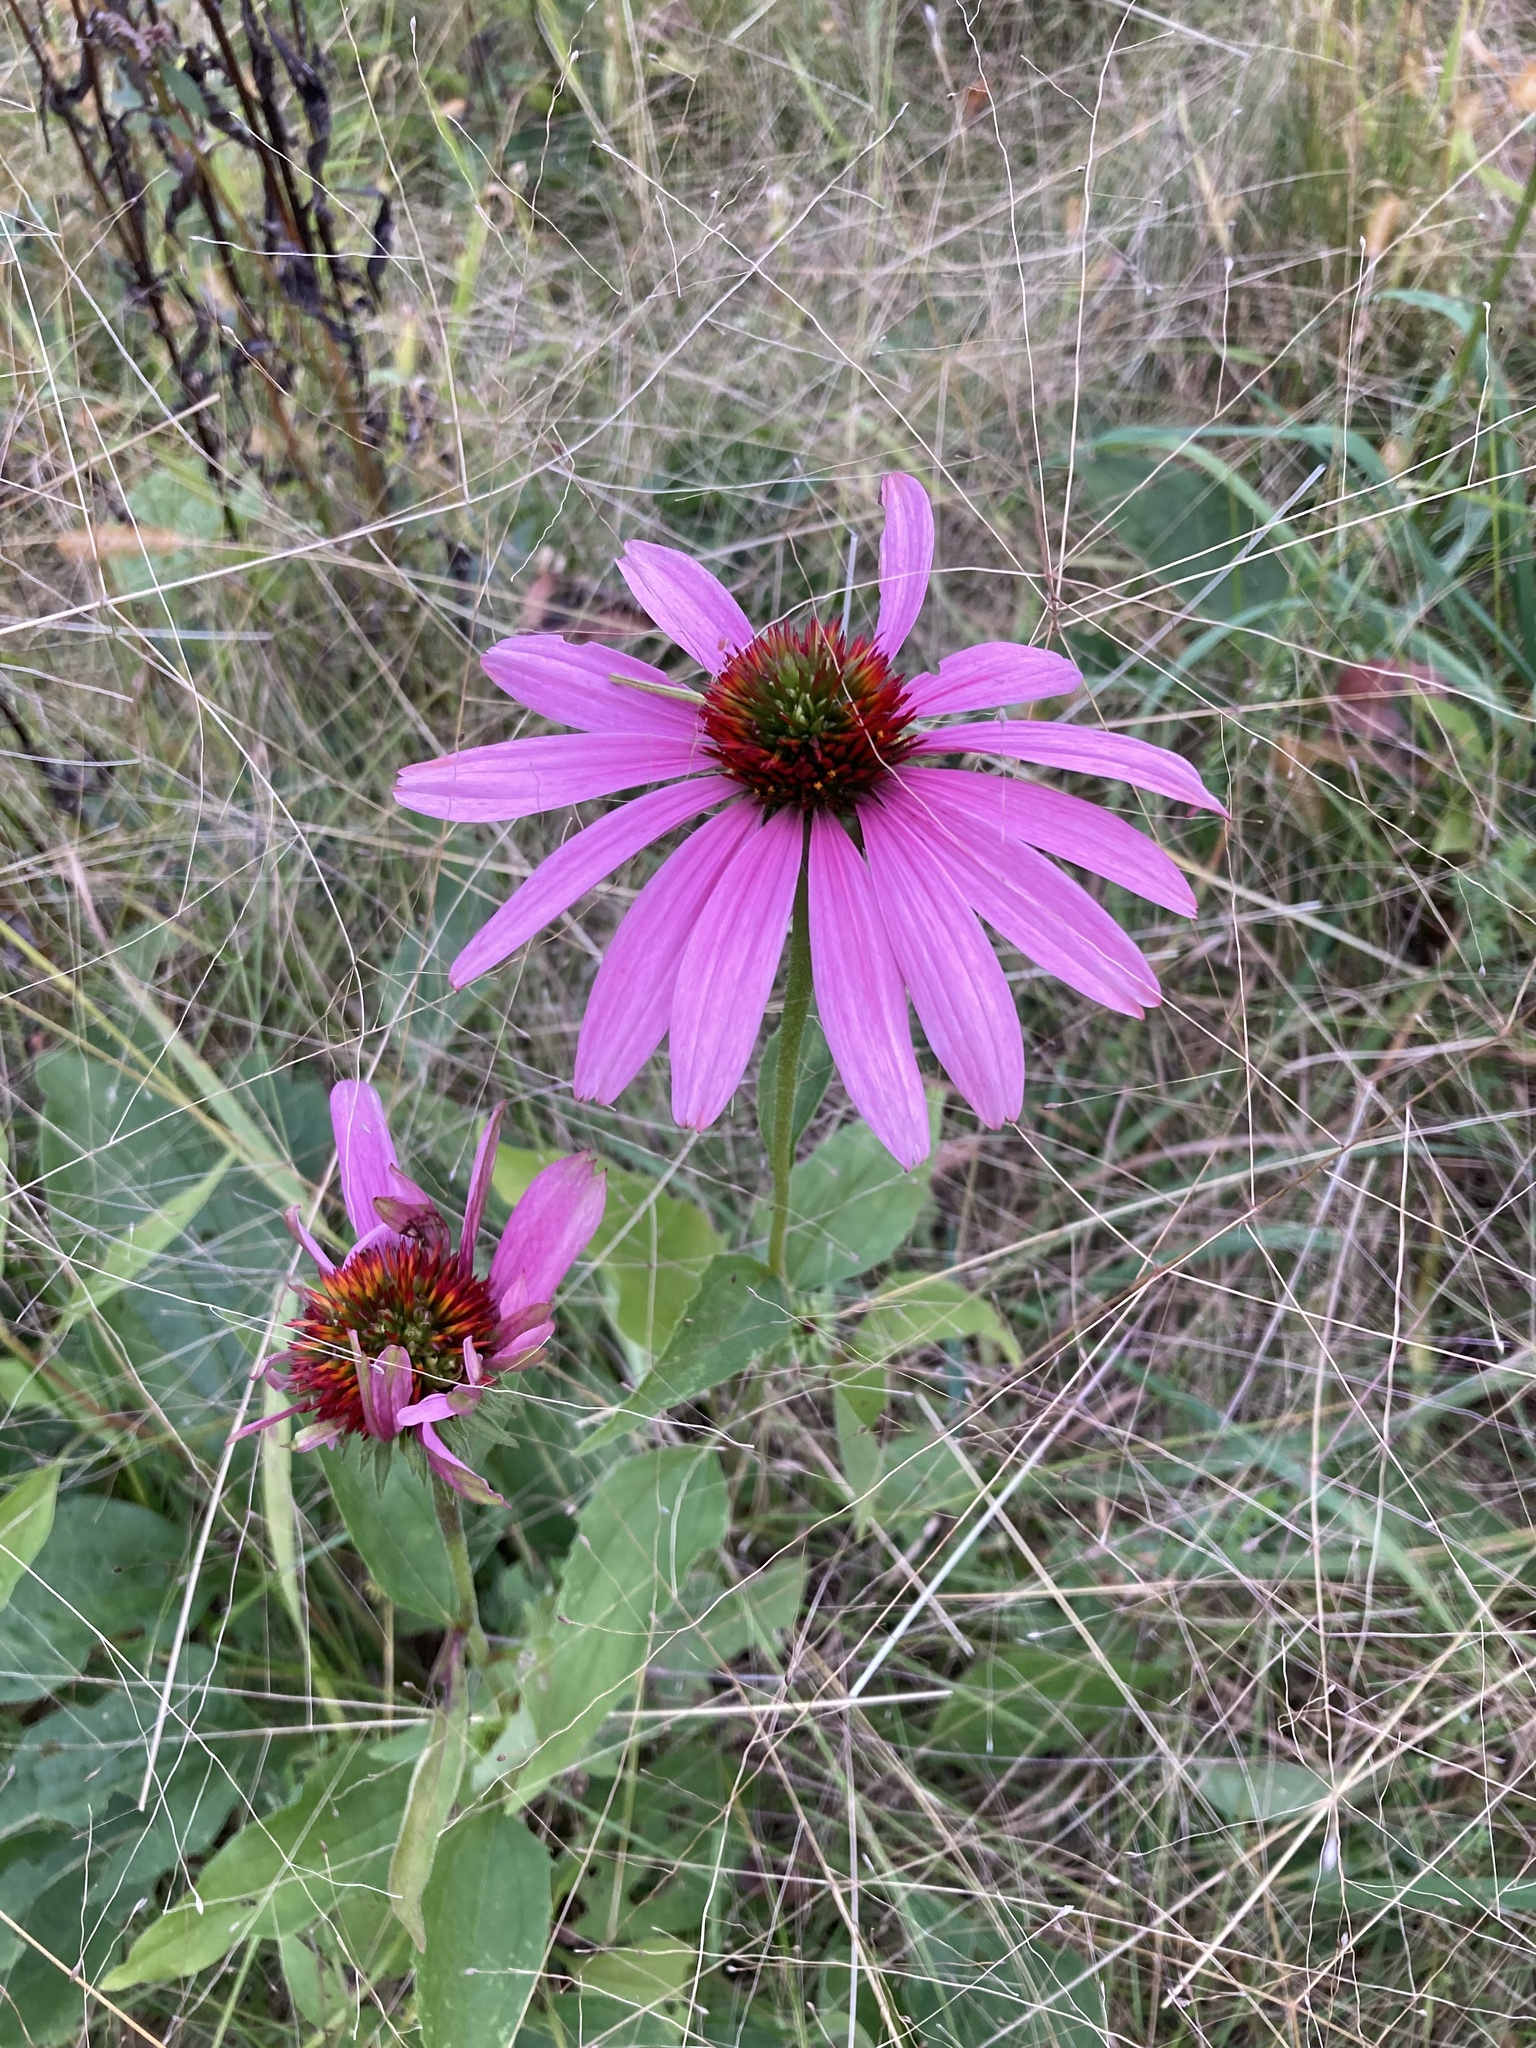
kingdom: Plantae
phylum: Tracheophyta
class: Magnoliopsida
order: Asterales
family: Asteraceae
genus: Echinacea
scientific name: Echinacea purpurea
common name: Broad-leaved purple coneflower
